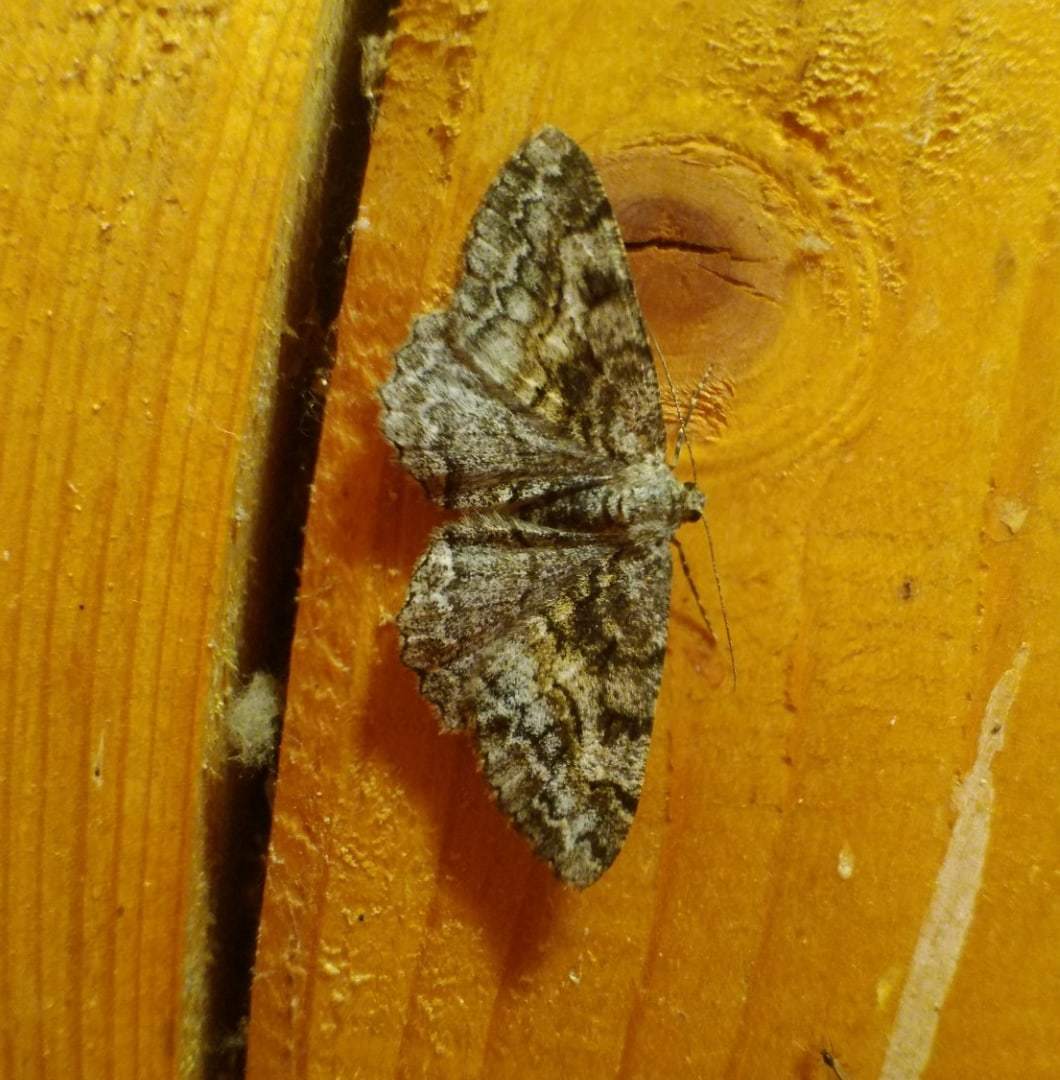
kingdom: Animalia
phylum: Arthropoda
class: Insecta
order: Lepidoptera
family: Geometridae
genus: Alcis
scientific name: Alcis repandata
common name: Mottled beauty
